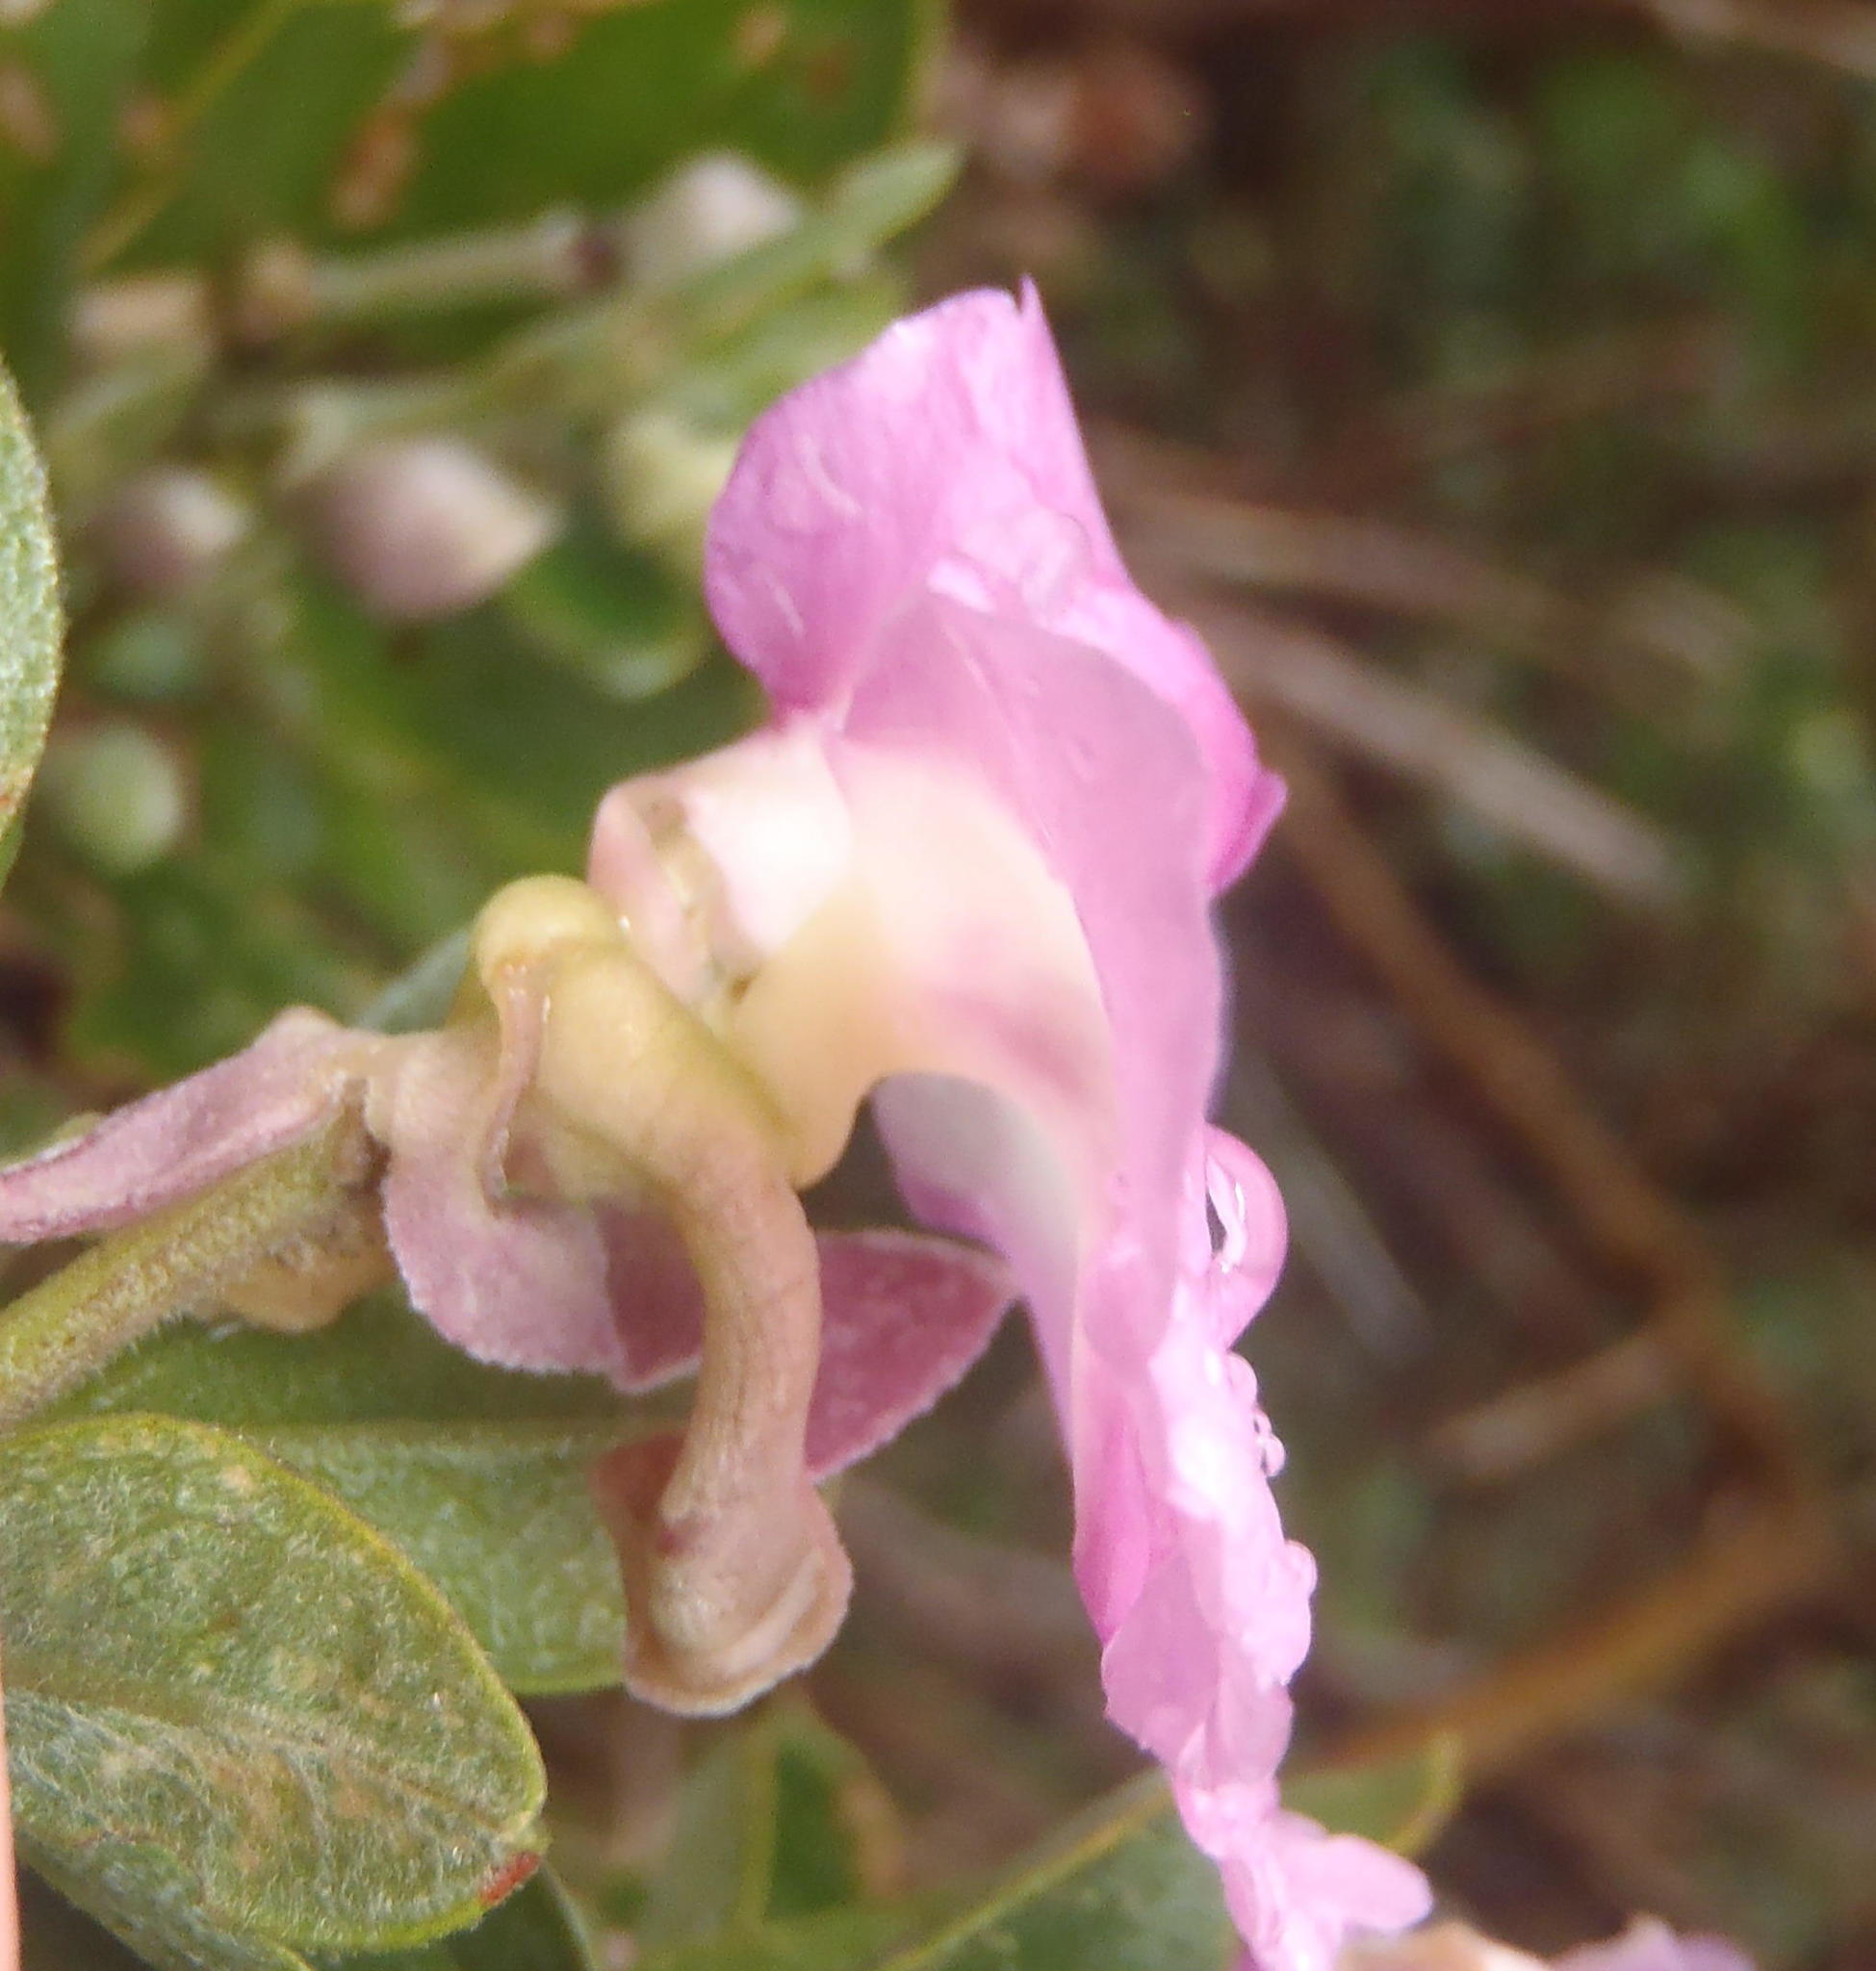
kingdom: Plantae
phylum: Tracheophyta
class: Magnoliopsida
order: Fabales
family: Fabaceae
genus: Podalyria
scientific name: Podalyria calyptrata
